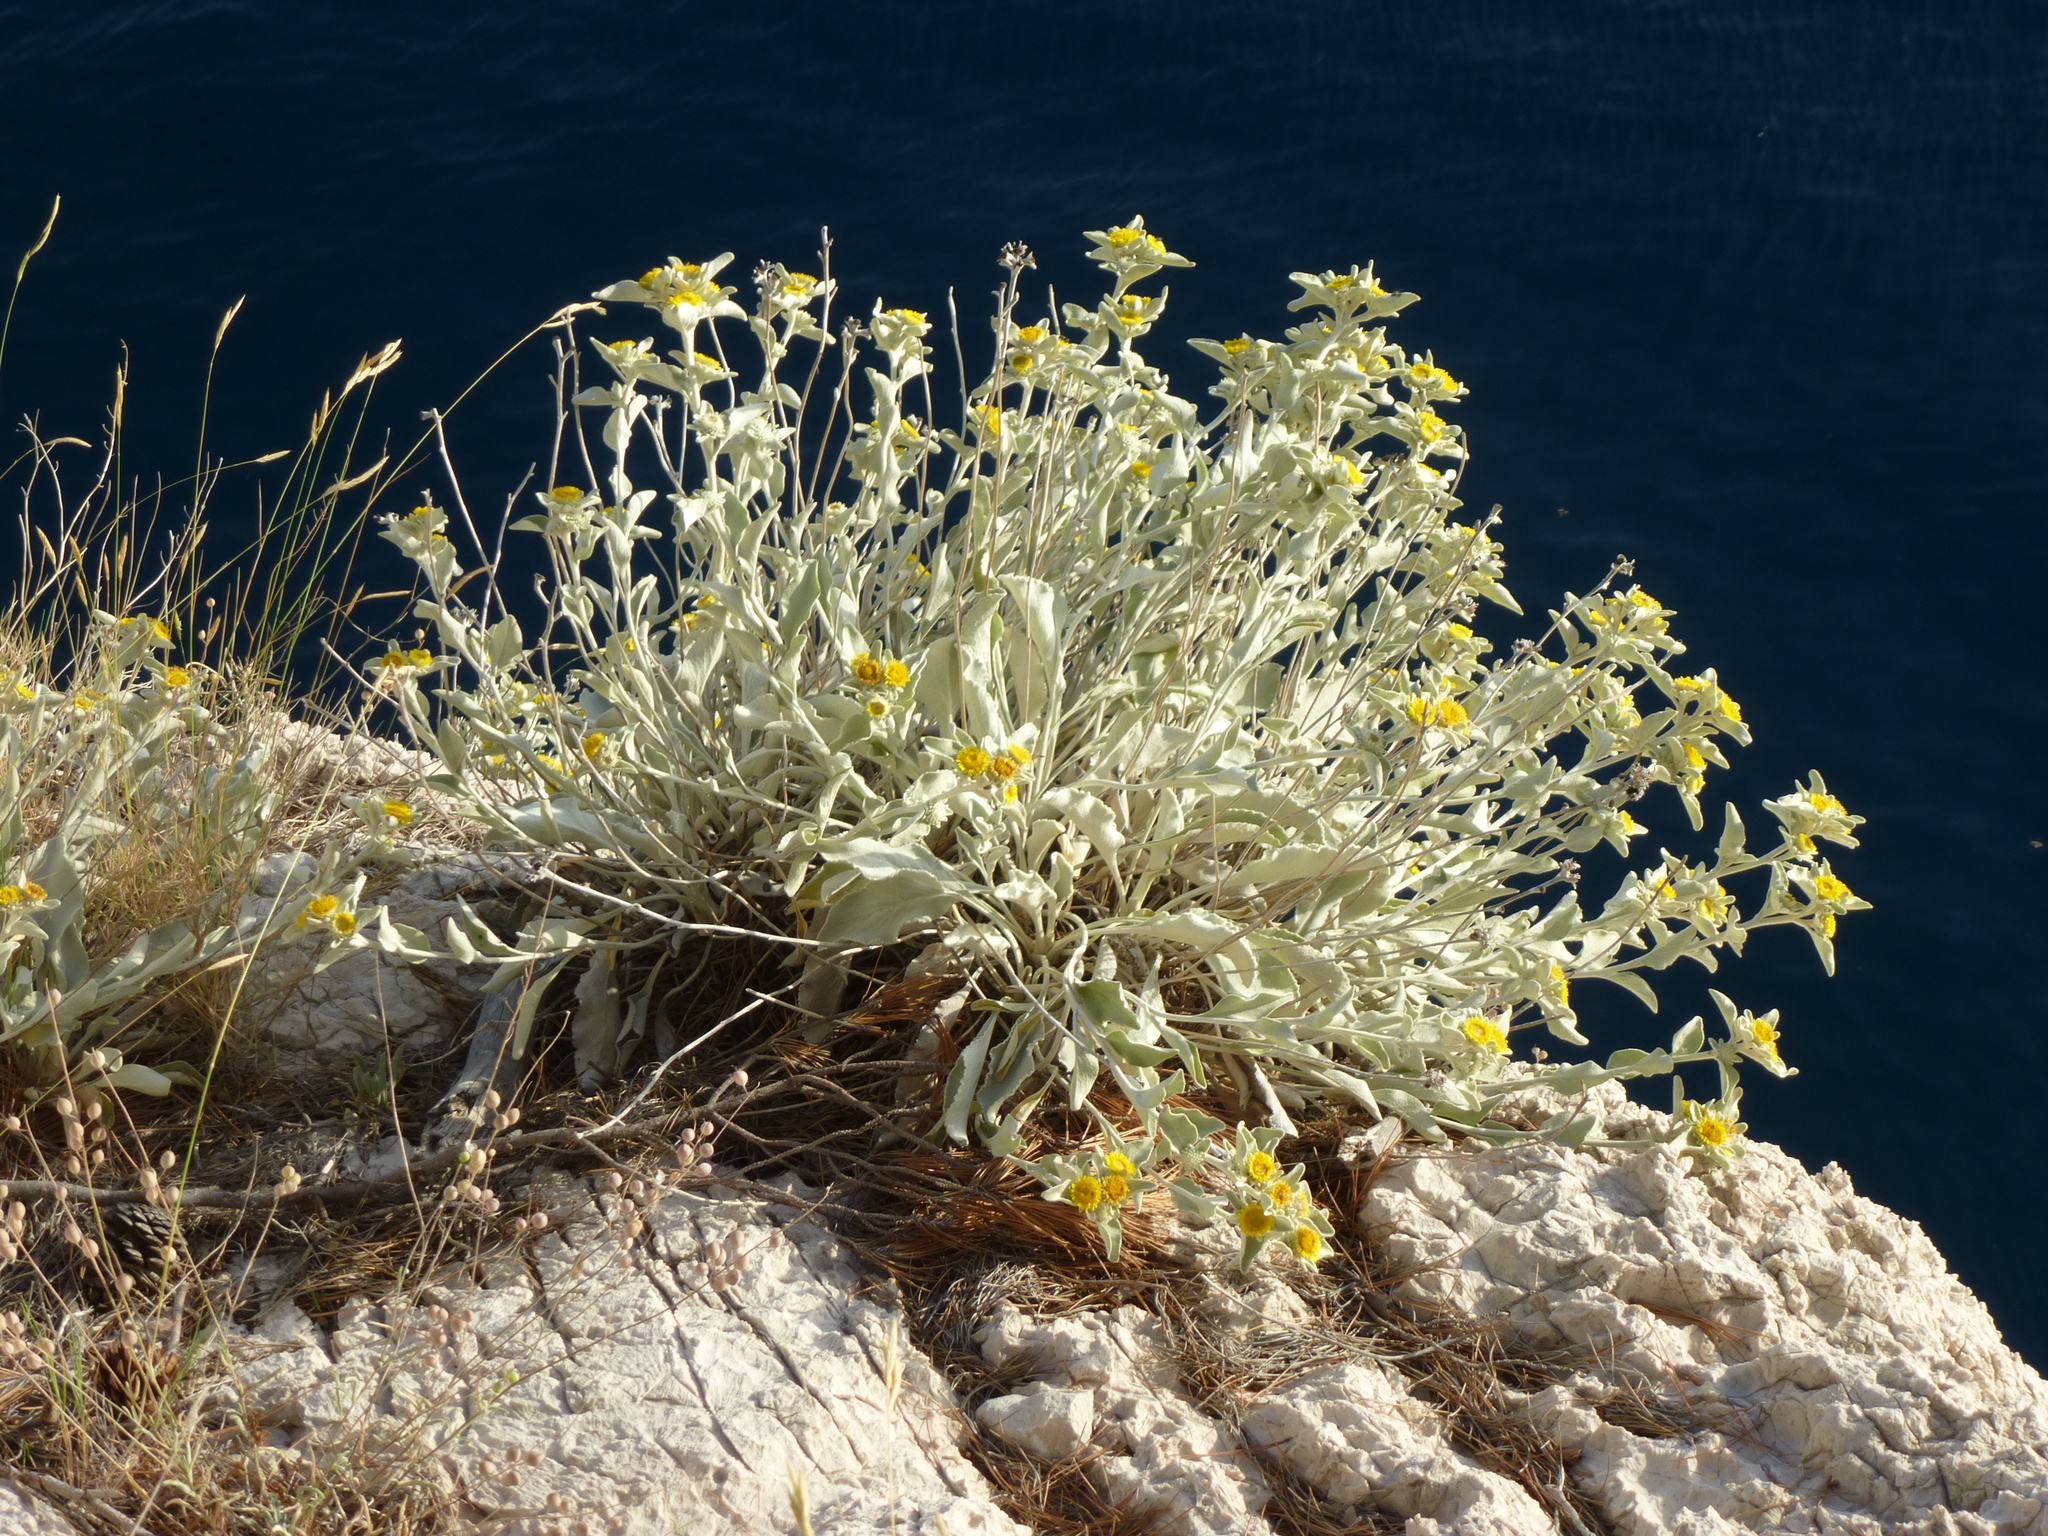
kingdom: Plantae
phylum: Tracheophyta
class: Magnoliopsida
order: Asterales
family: Asteraceae
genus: Pentanema
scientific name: Pentanema verbascifolium
